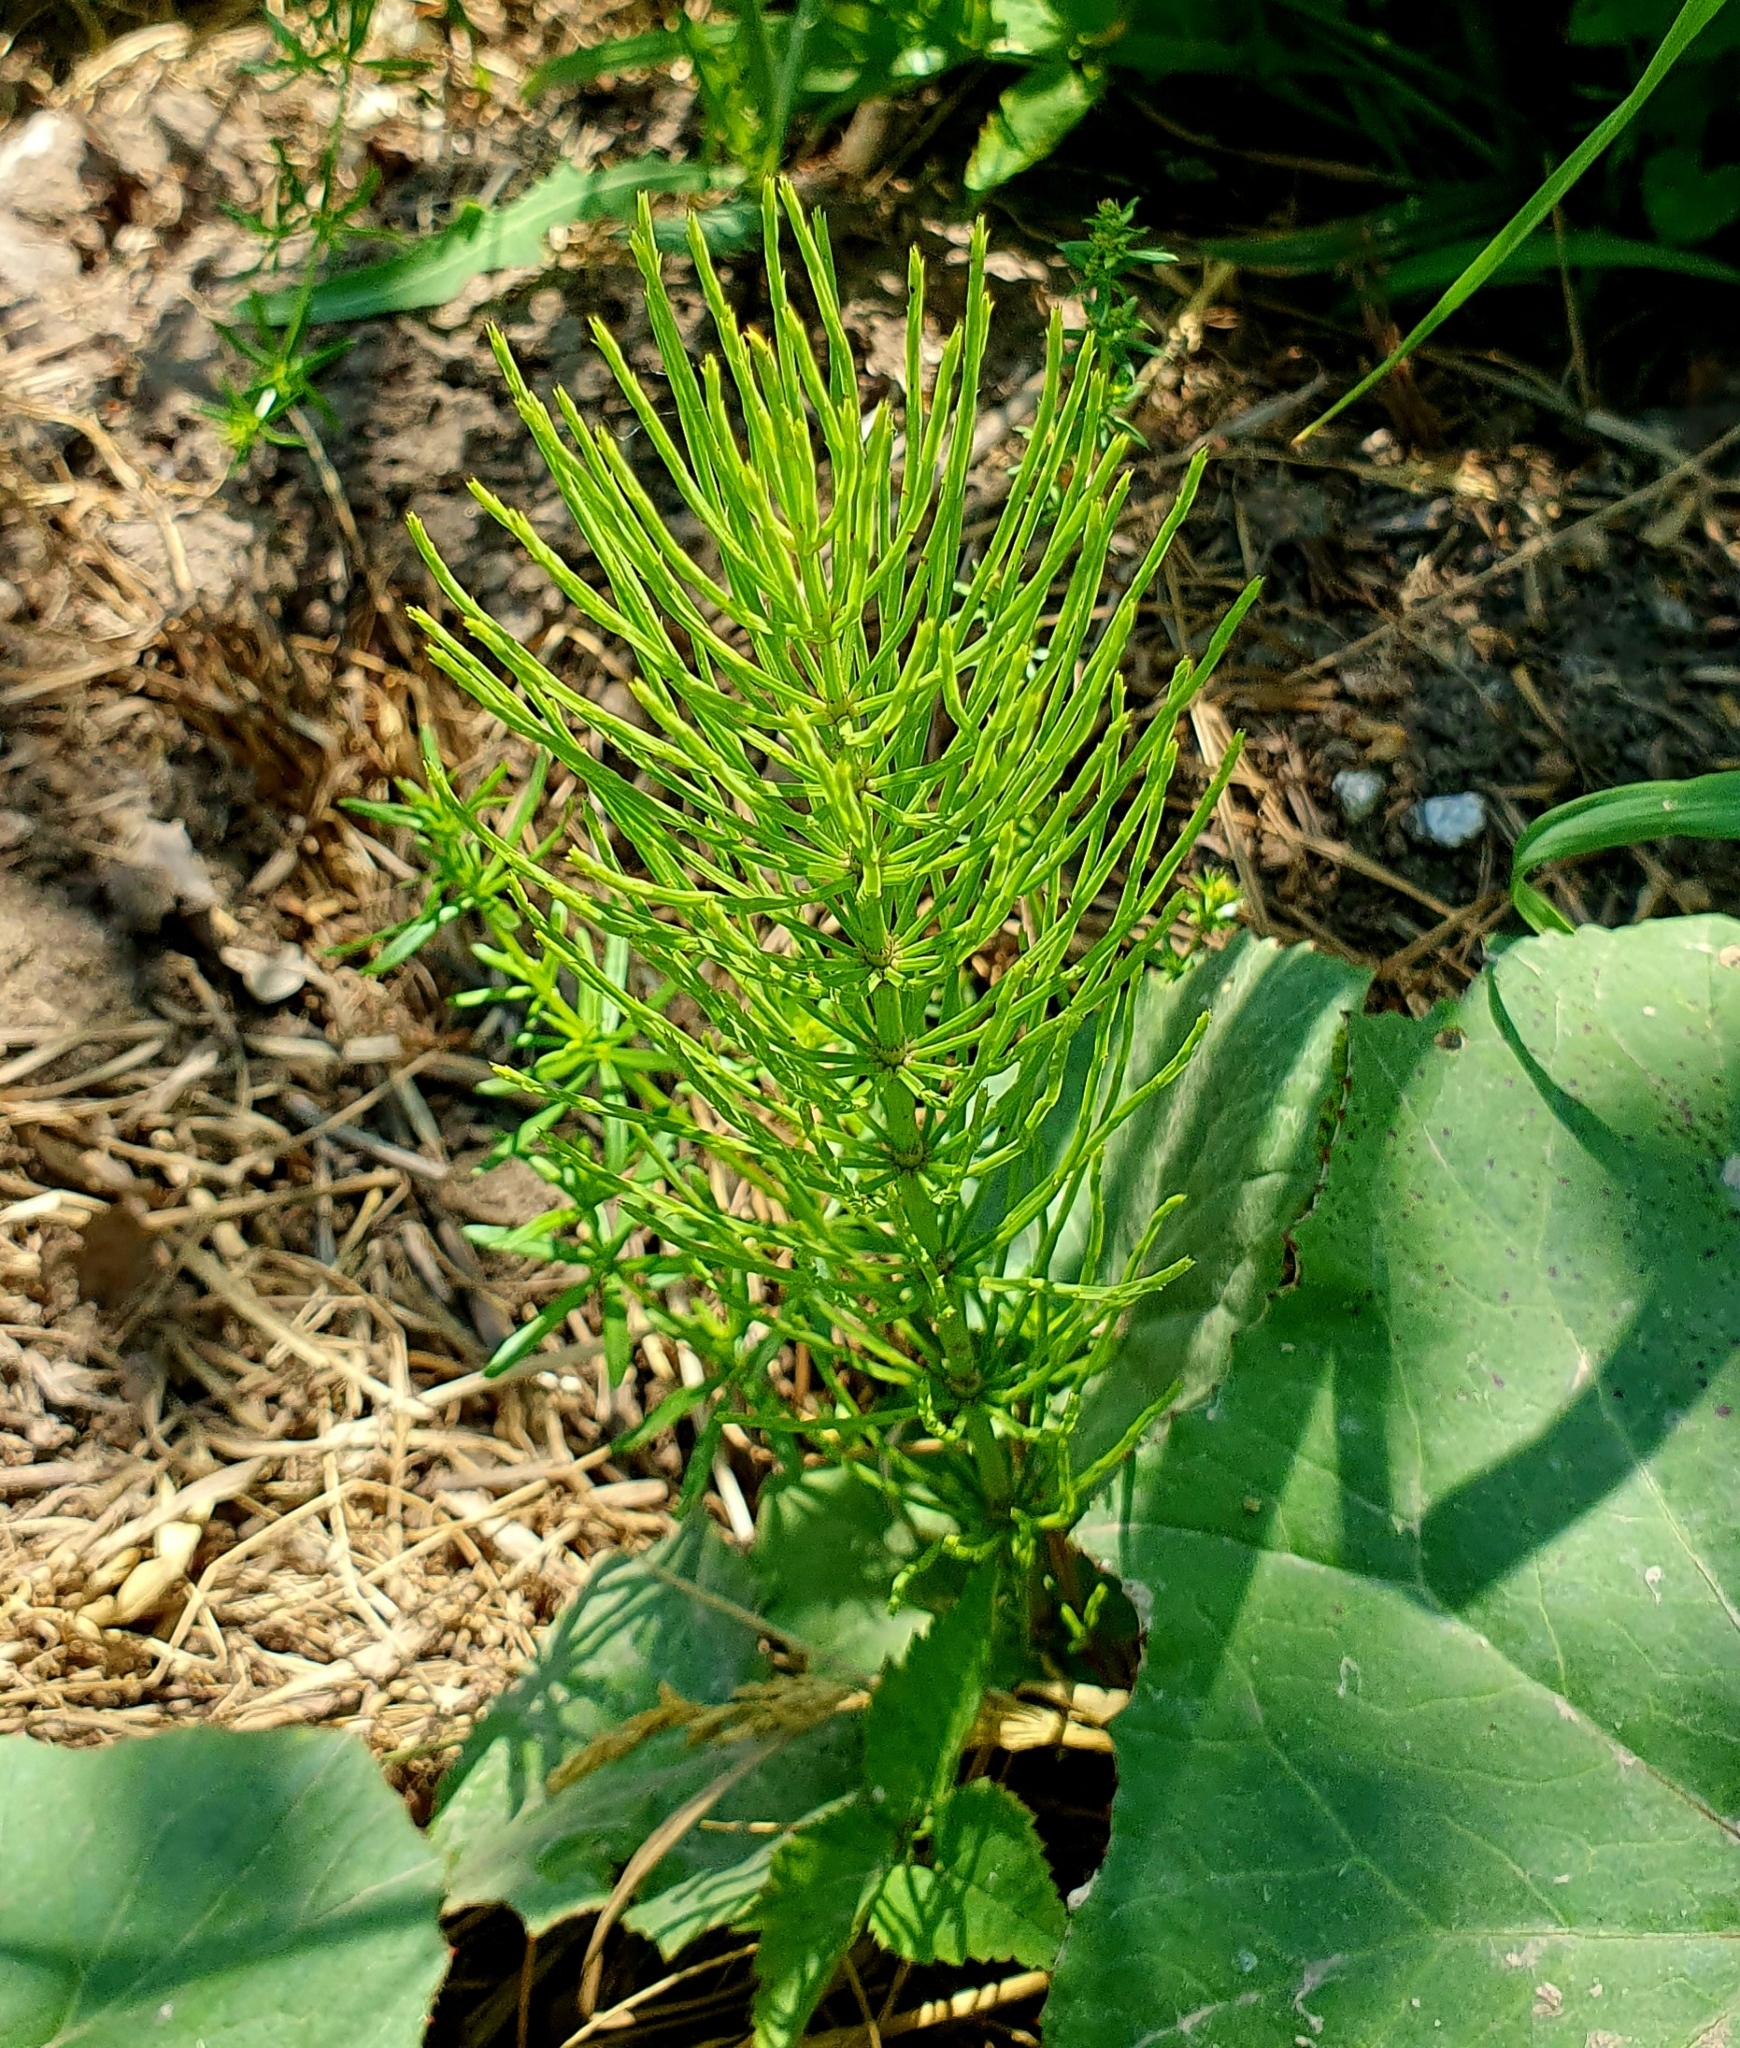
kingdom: Plantae
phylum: Tracheophyta
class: Polypodiopsida
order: Equisetales
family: Equisetaceae
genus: Equisetum
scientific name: Equisetum arvense
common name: Field horsetail
